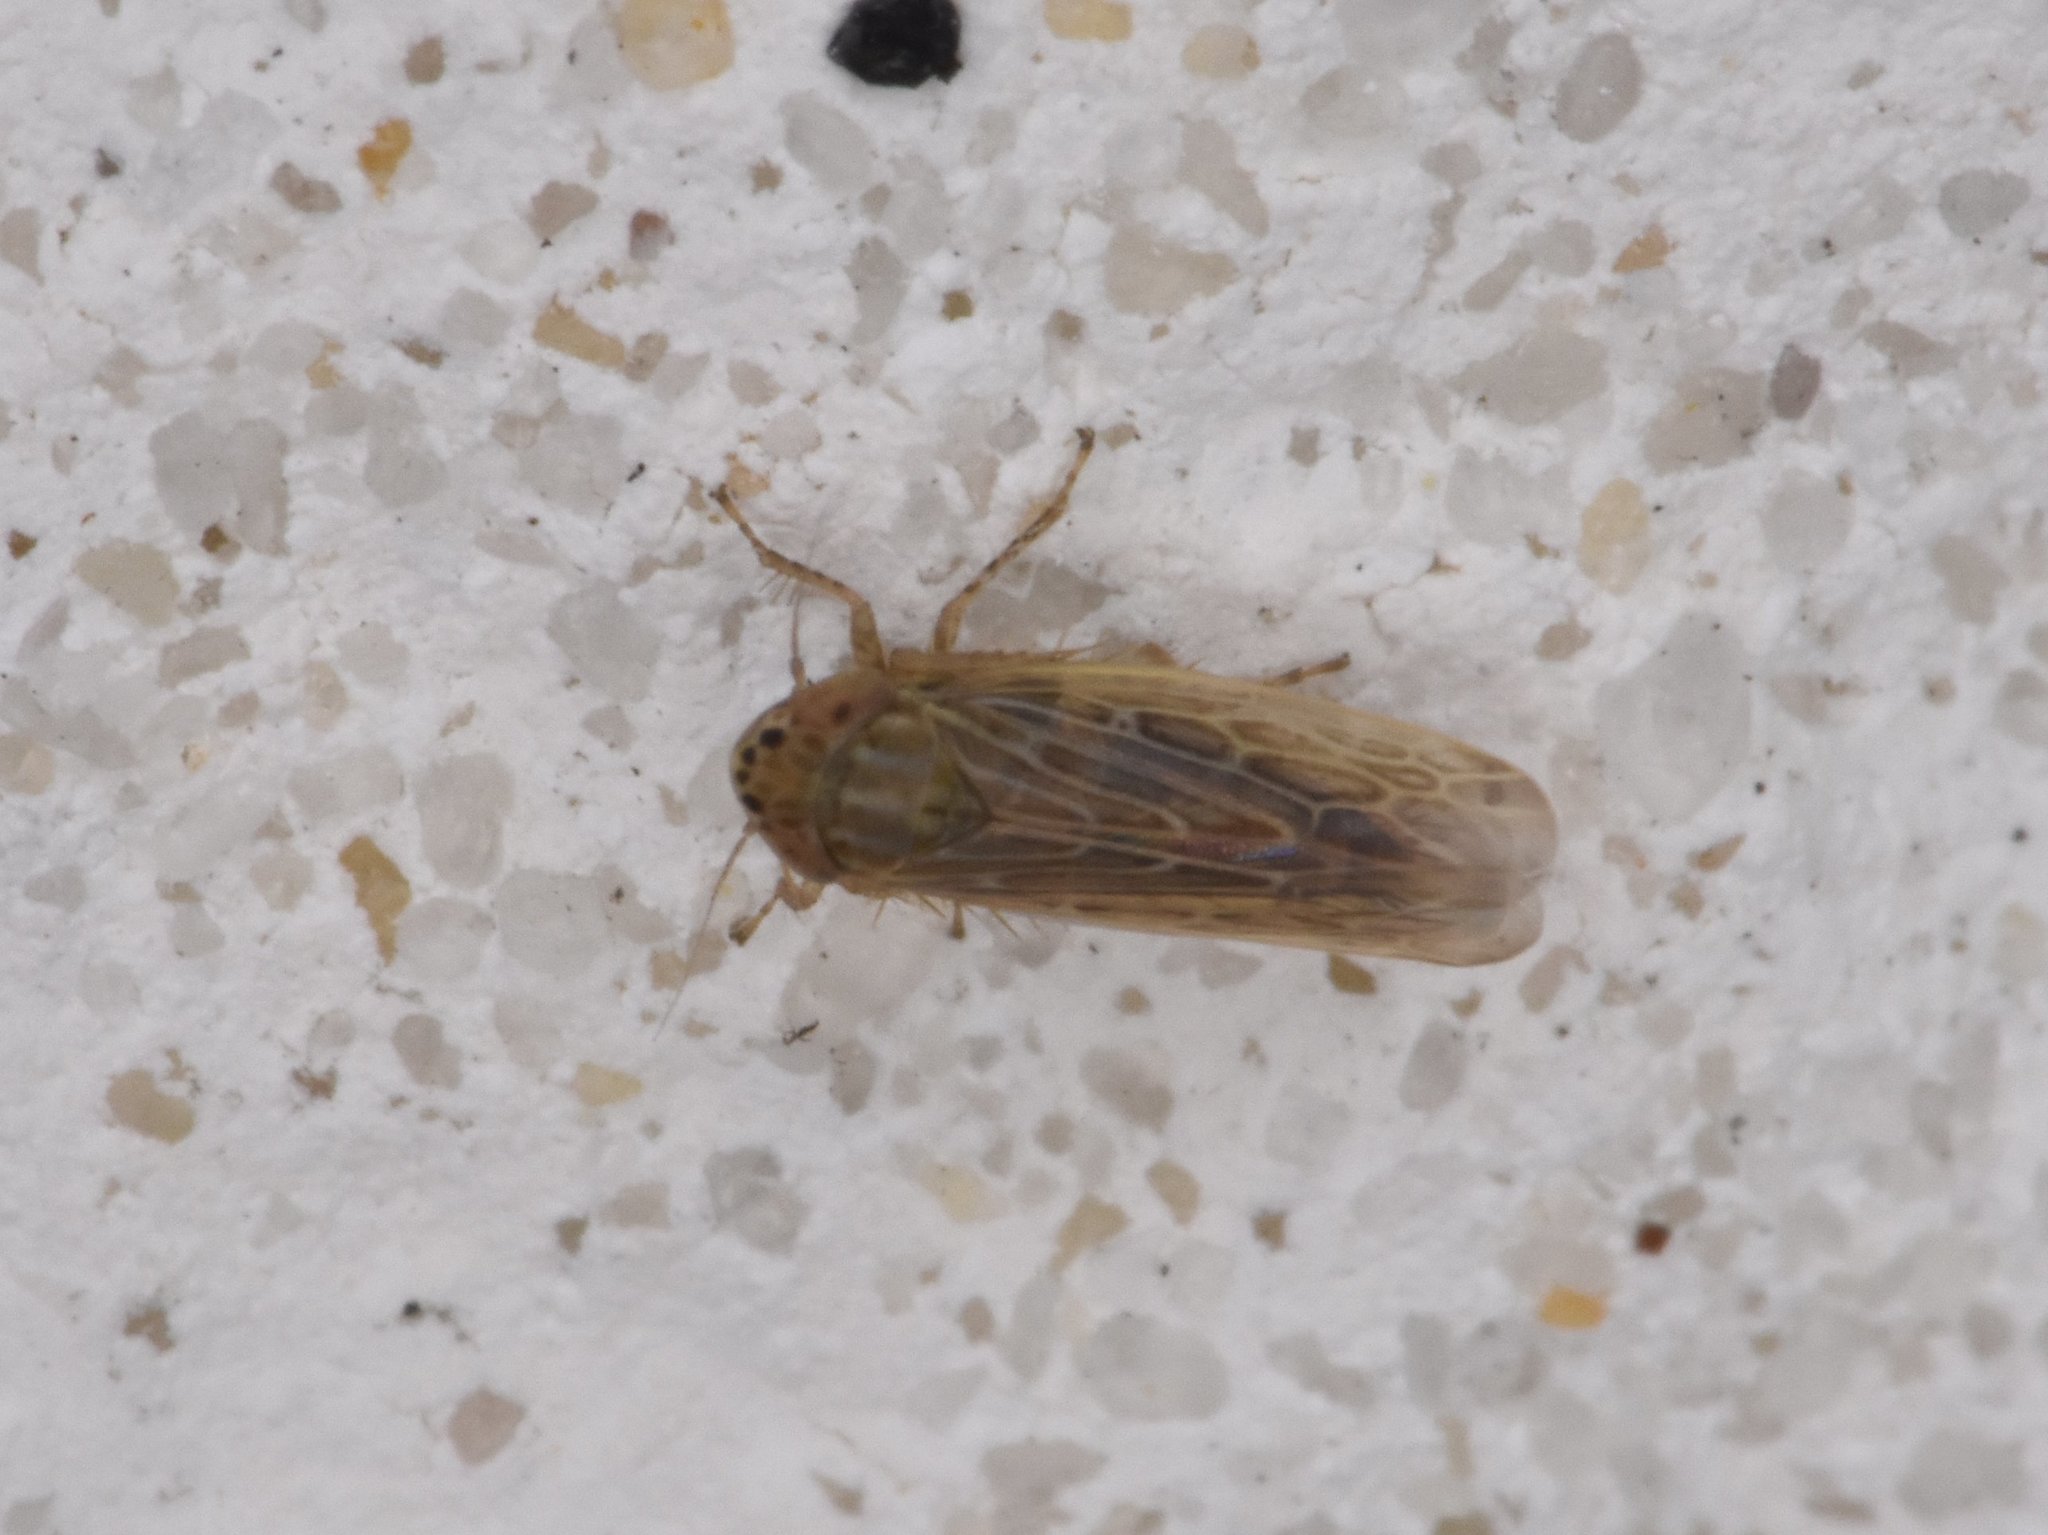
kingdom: Animalia
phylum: Arthropoda
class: Insecta
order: Hemiptera
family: Cicadellidae
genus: Graminella
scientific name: Graminella sonora
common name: Lesser lawn leafhopper
